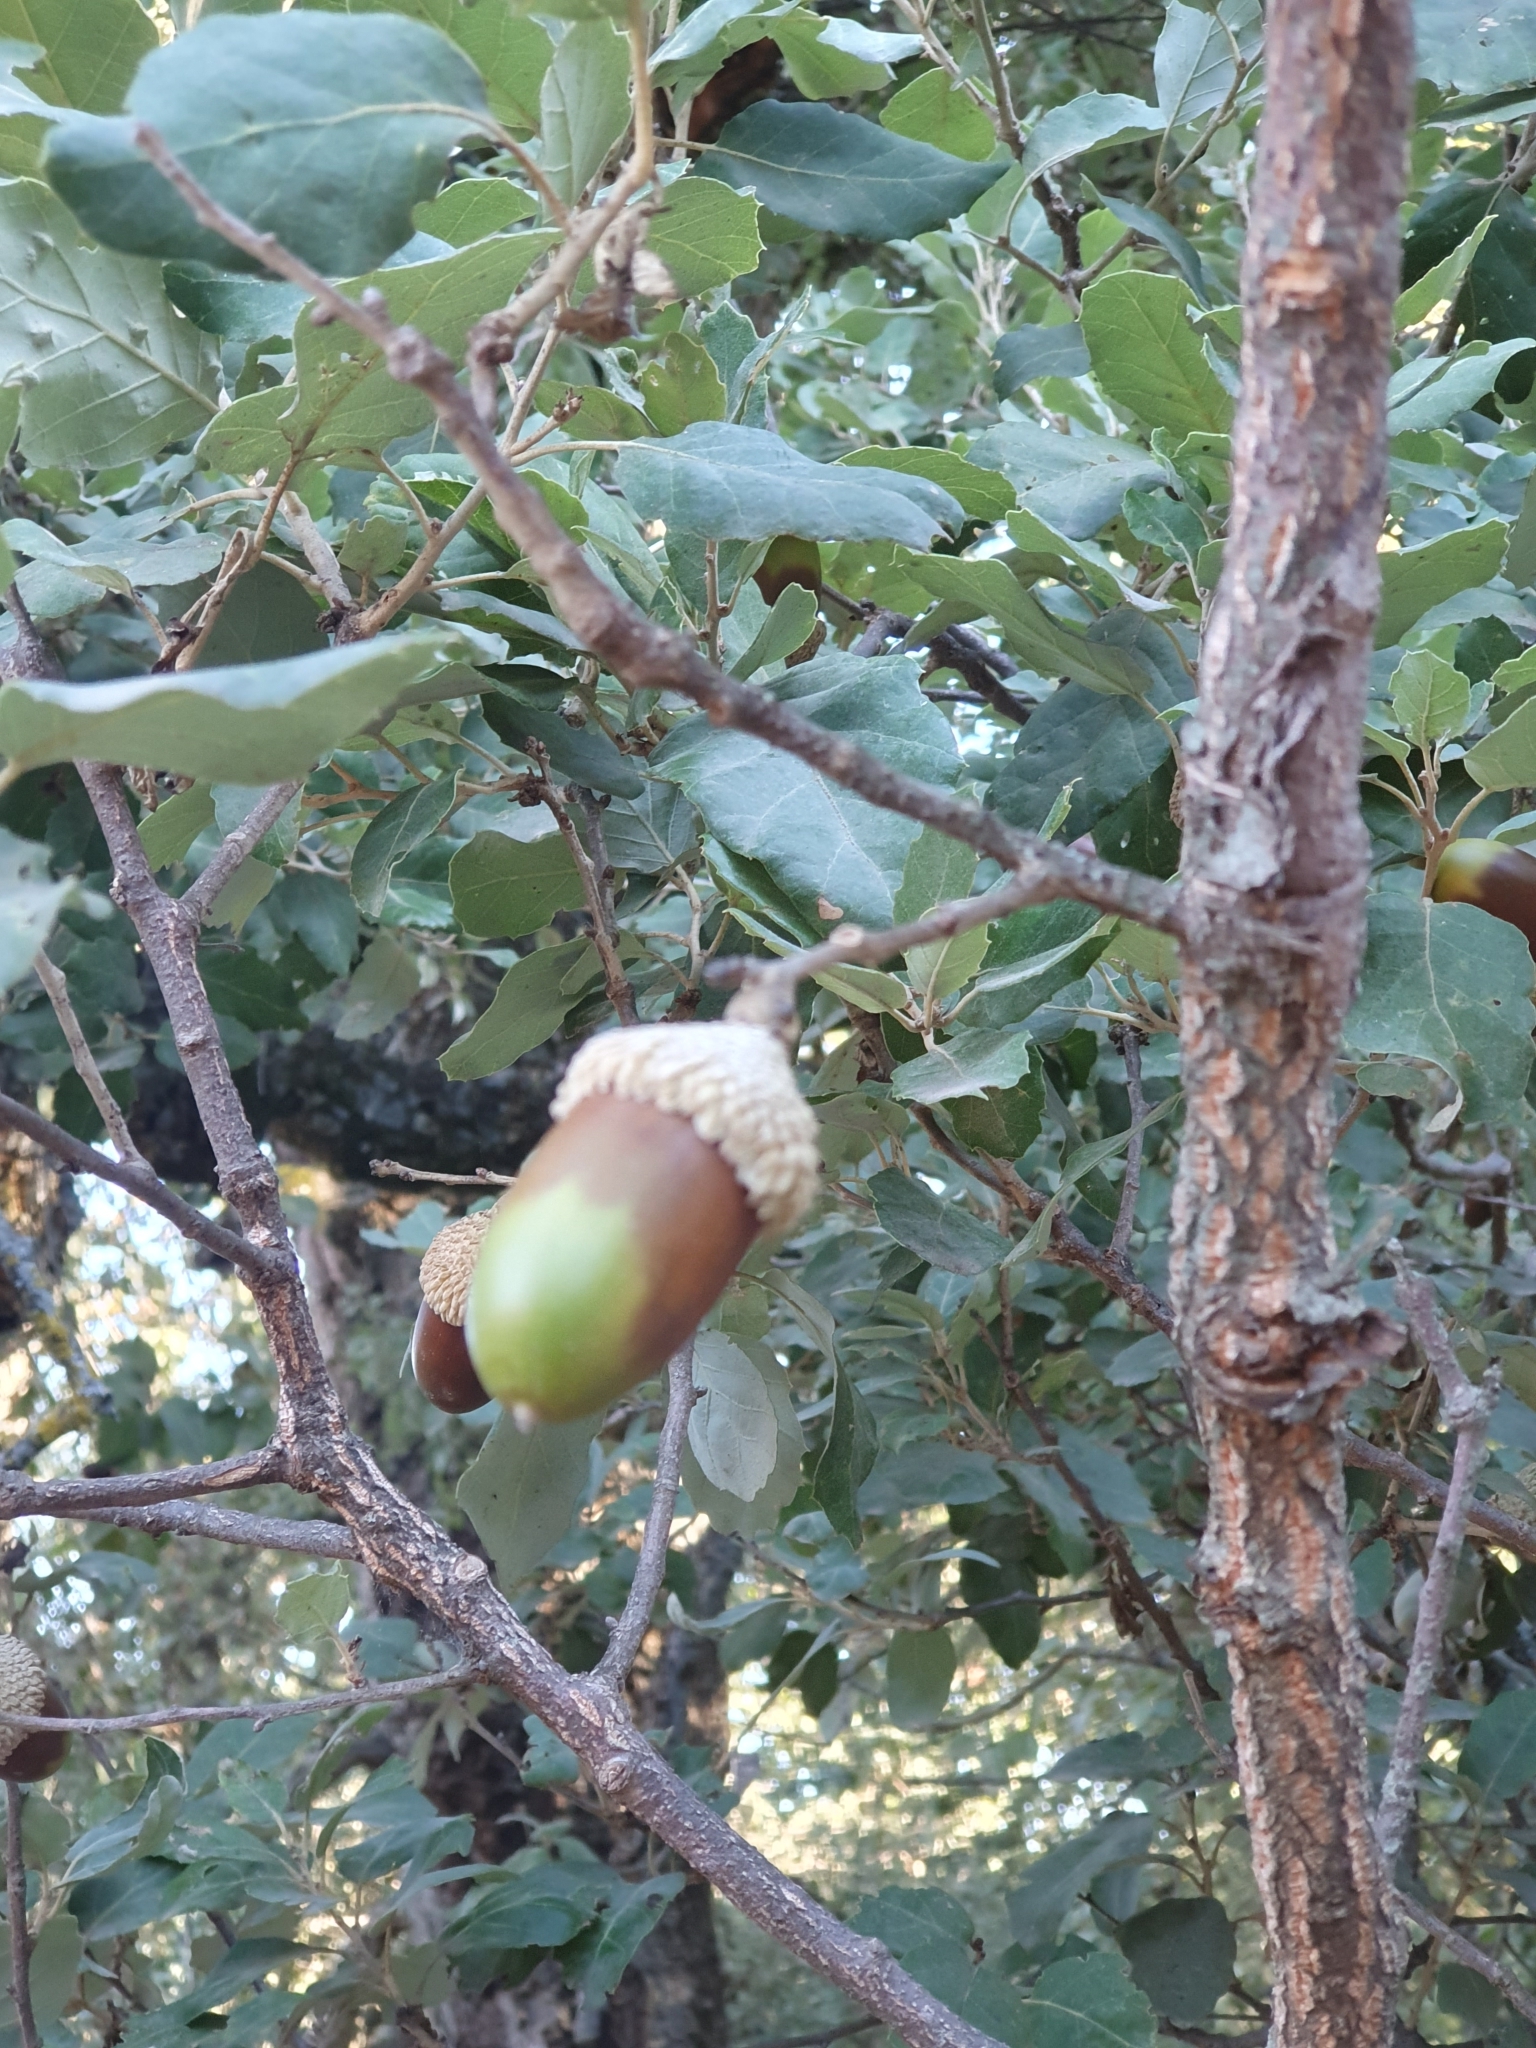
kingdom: Plantae
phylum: Tracheophyta
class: Magnoliopsida
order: Fagales
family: Fagaceae
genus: Quercus
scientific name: Quercus suber
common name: Cork oak
